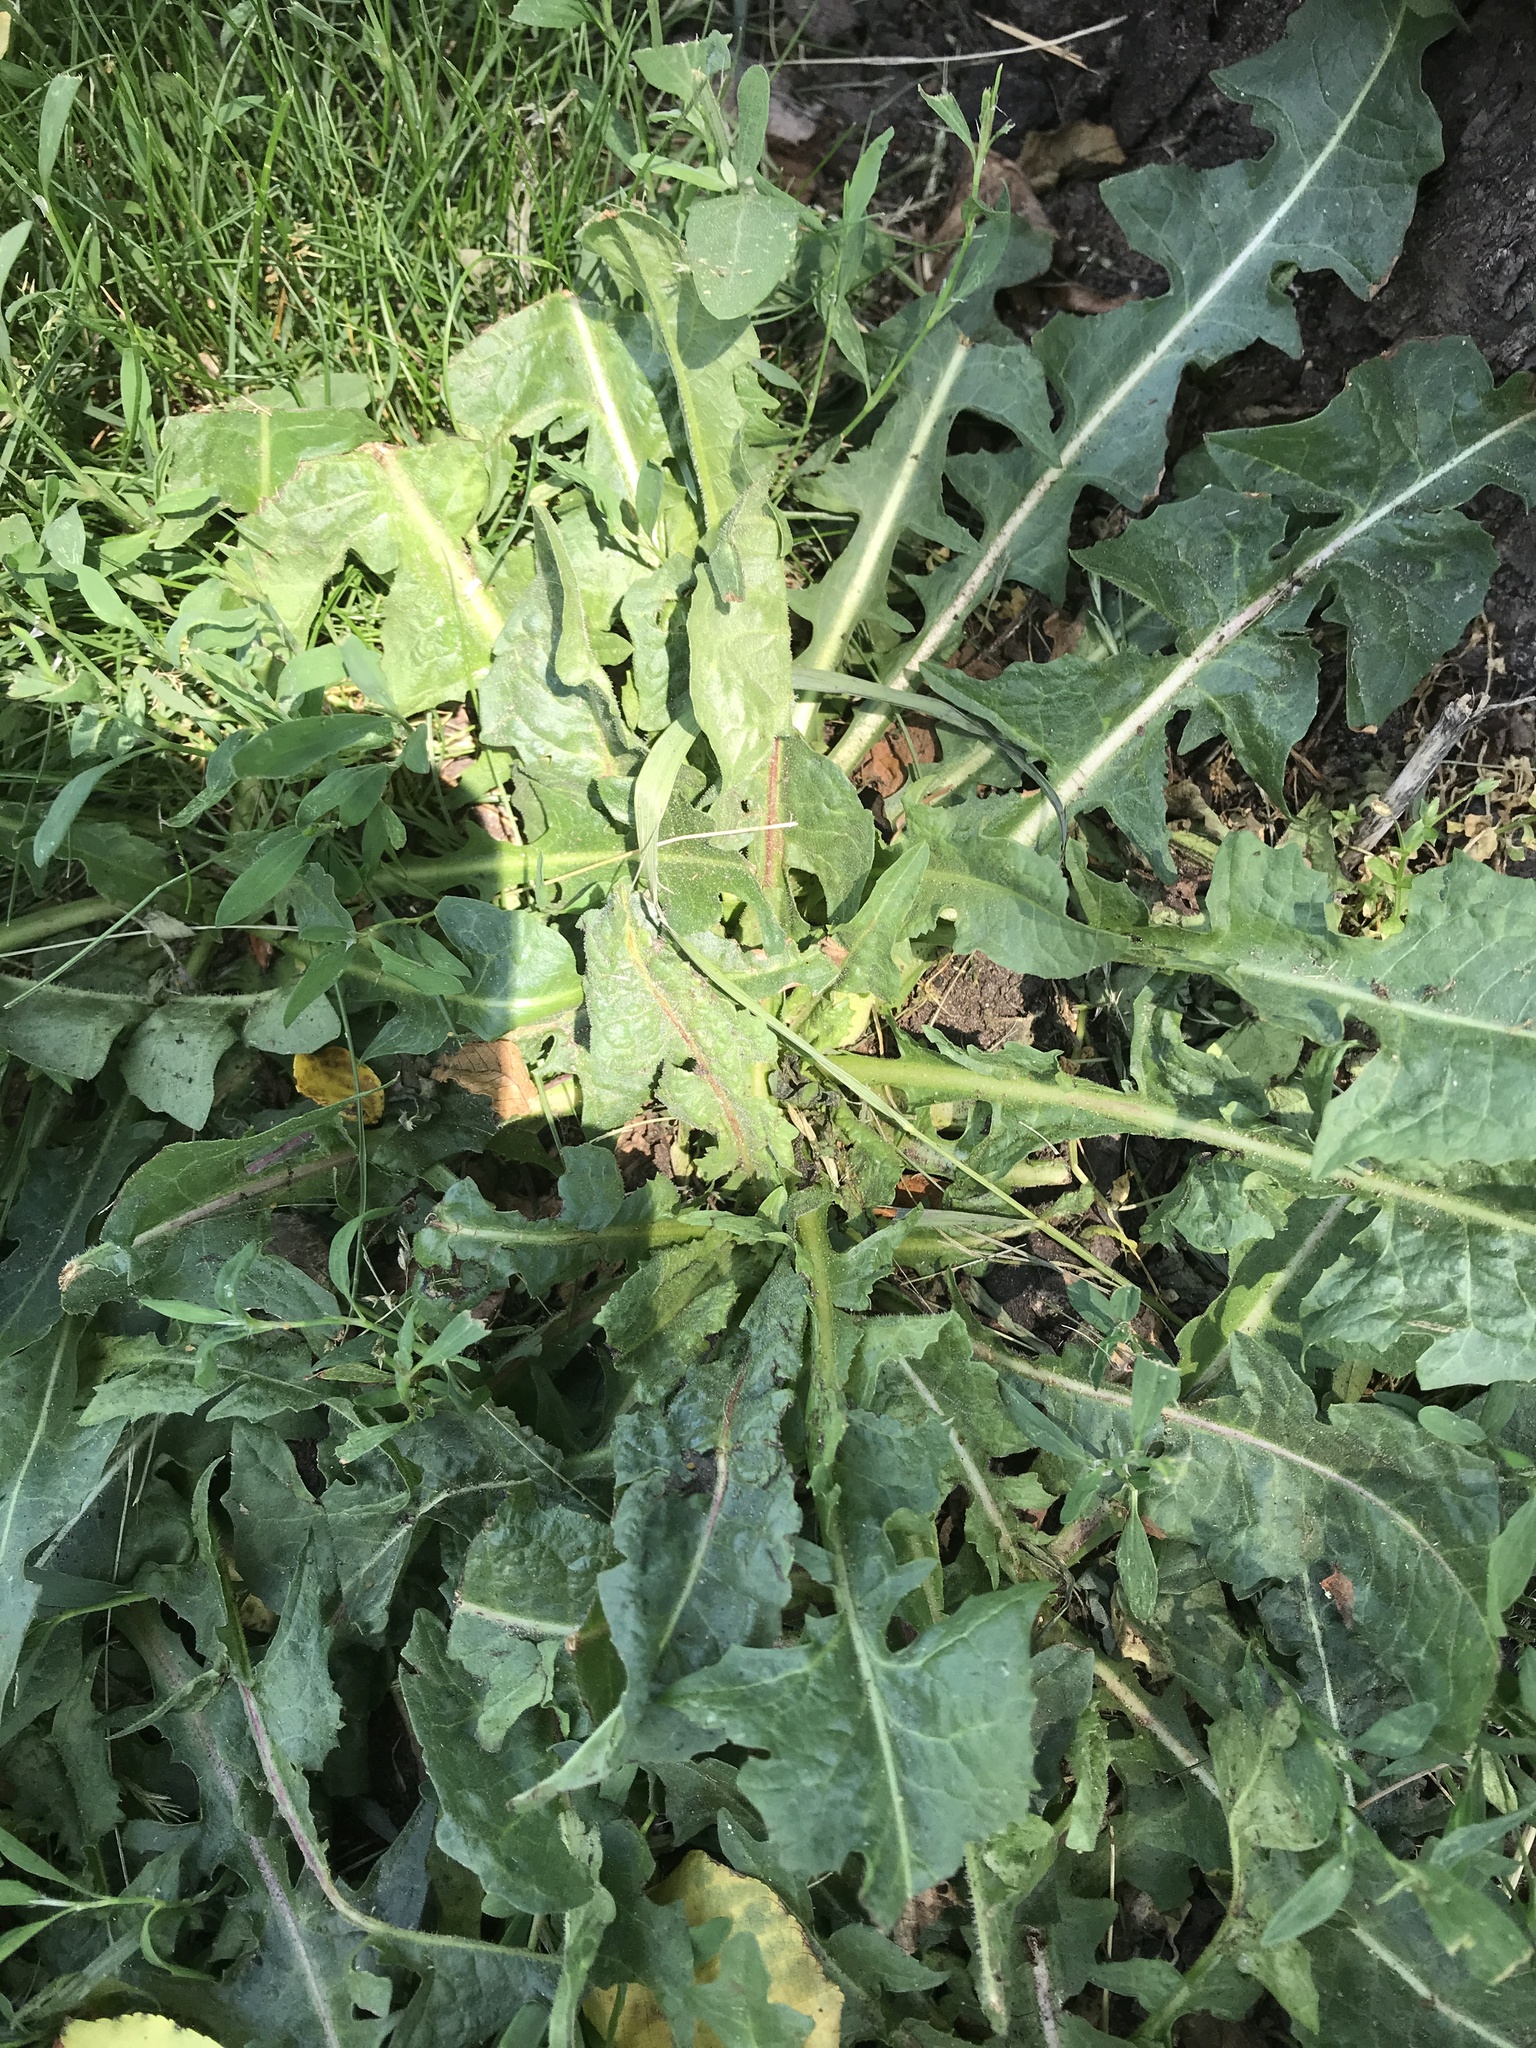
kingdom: Plantae
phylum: Tracheophyta
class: Magnoliopsida
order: Asterales
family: Asteraceae
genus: Taraxacum
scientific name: Taraxacum officinale
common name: Common dandelion
